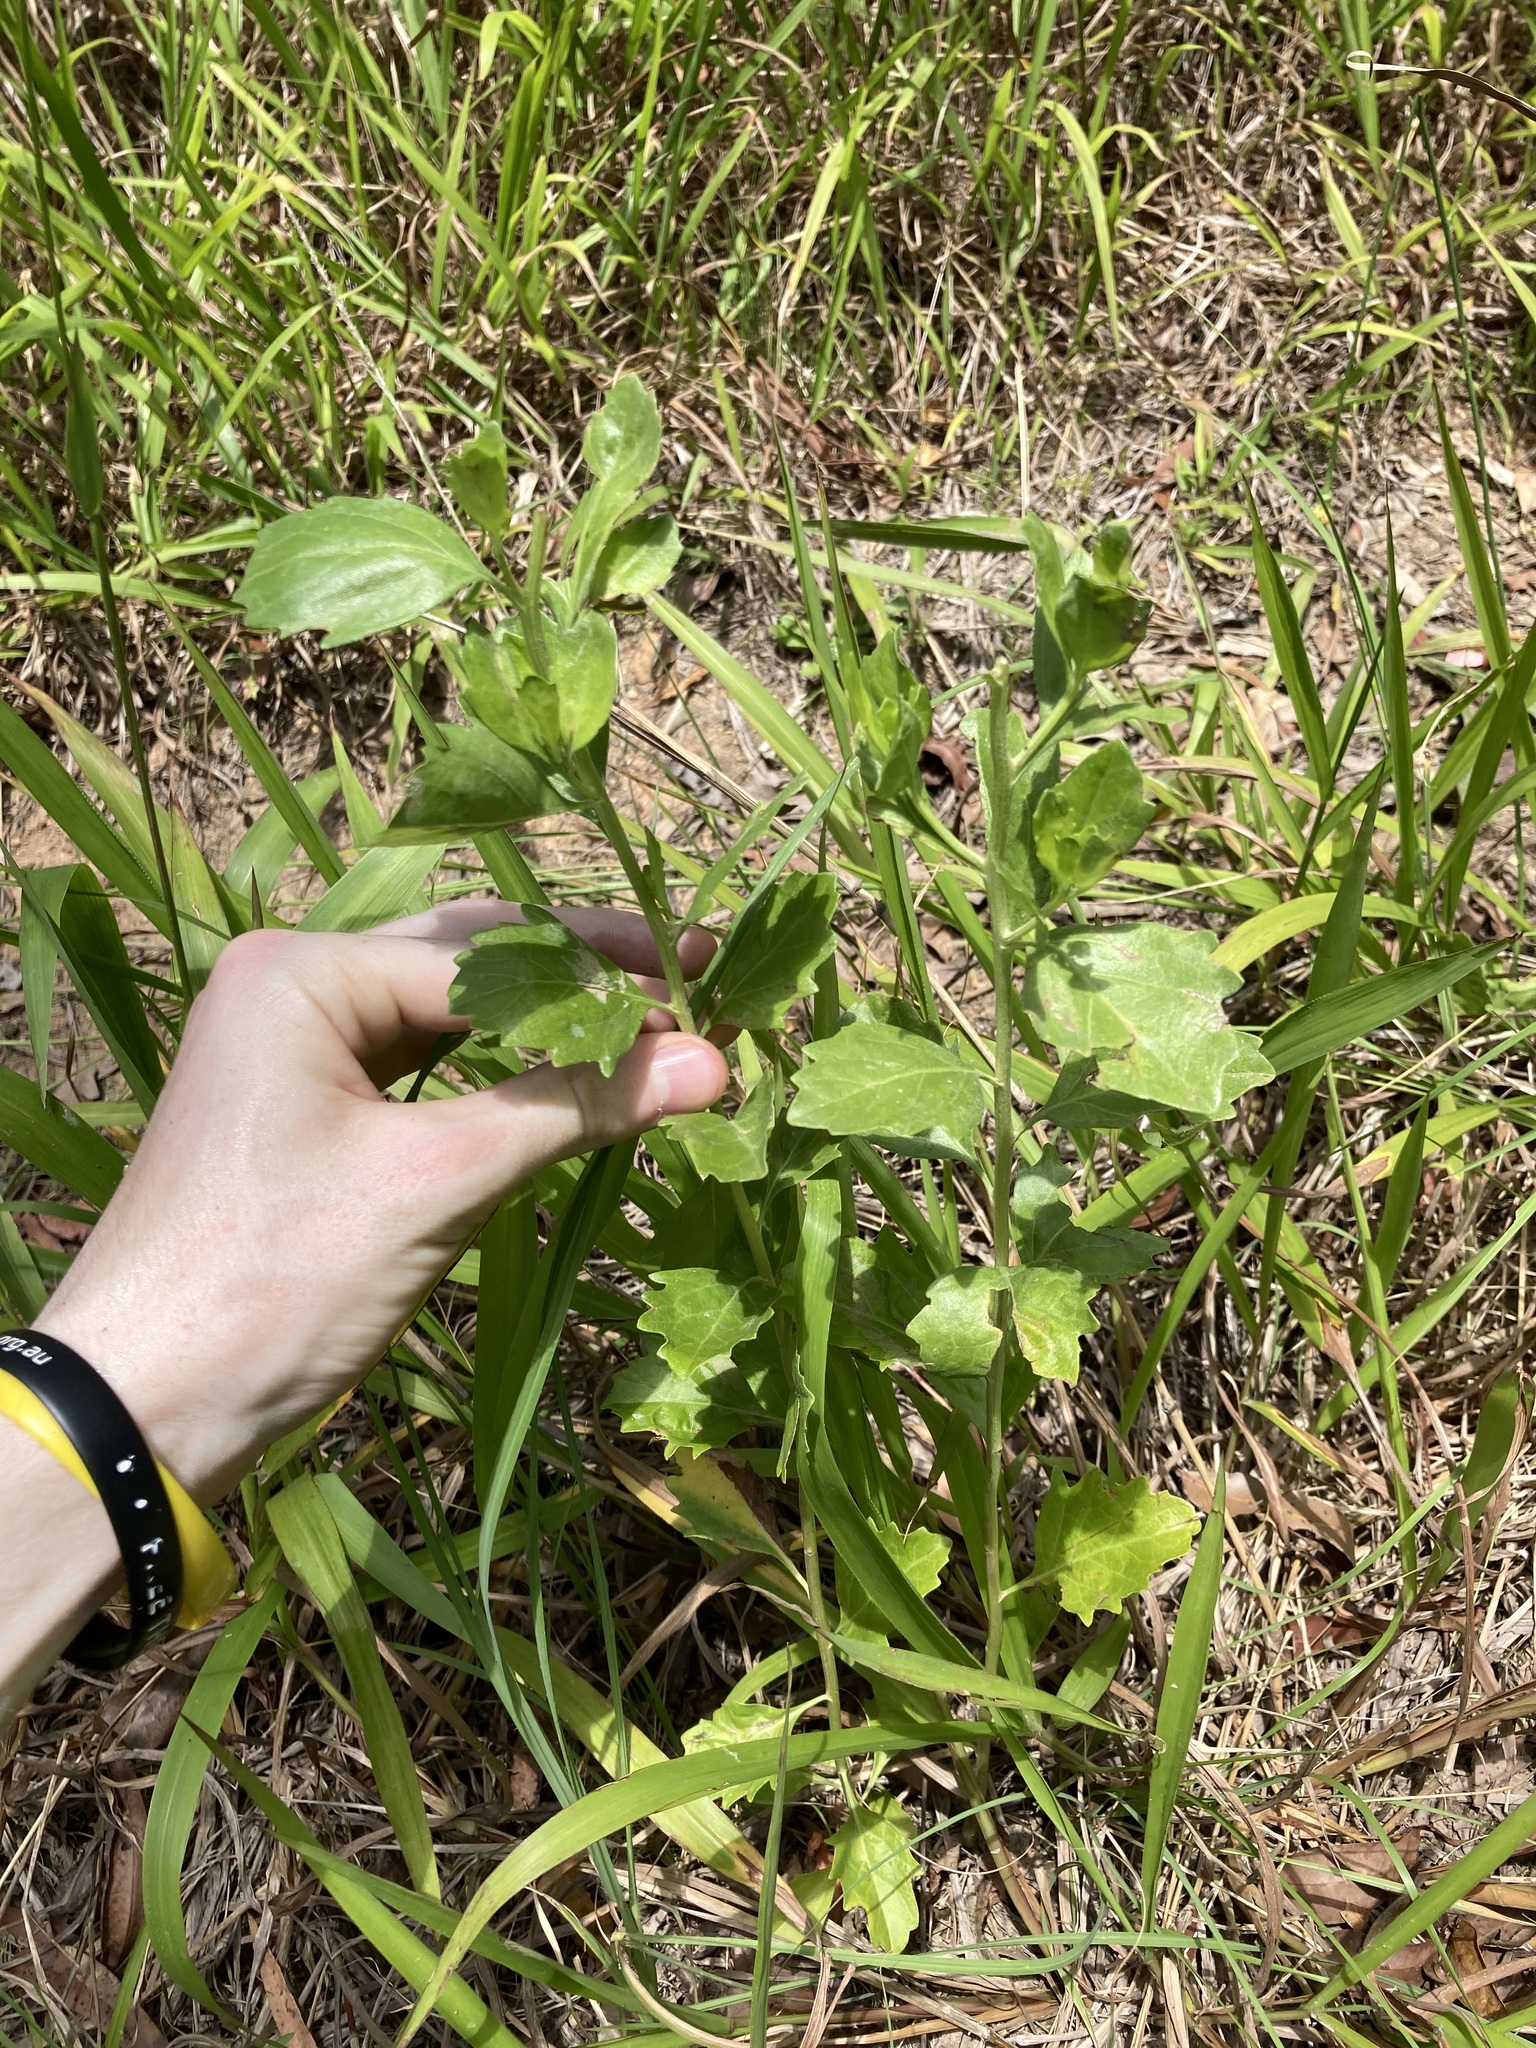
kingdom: Plantae
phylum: Tracheophyta
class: Magnoliopsida
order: Asterales
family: Asteraceae
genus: Baccharis
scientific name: Baccharis halimifolia
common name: Eastern baccharis
